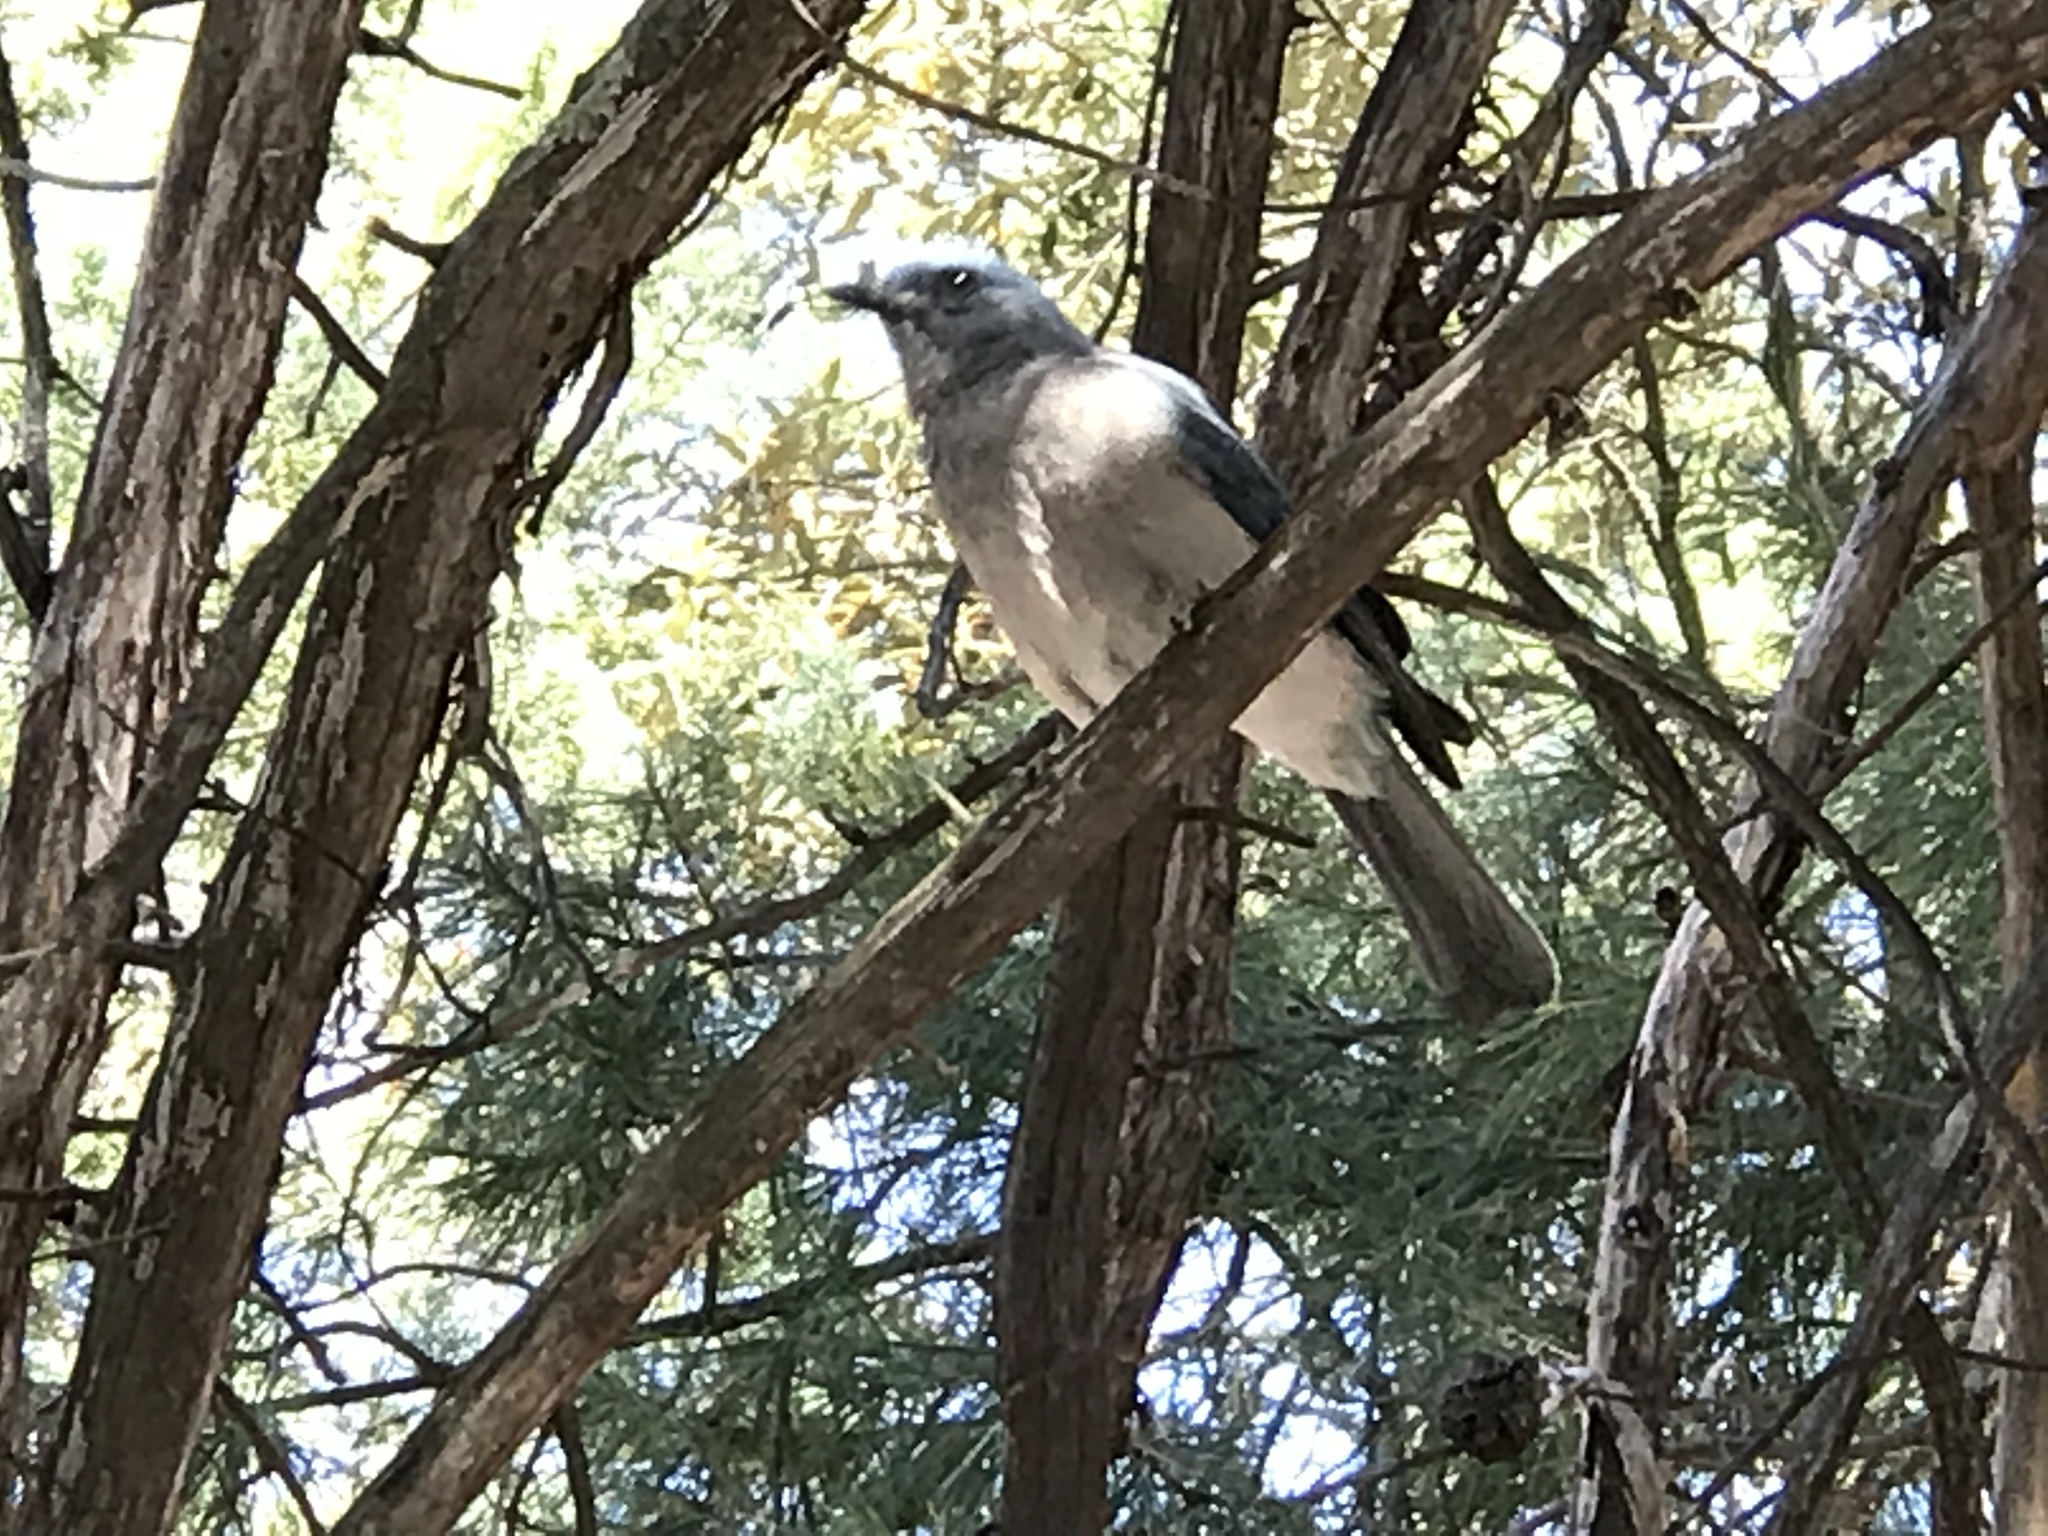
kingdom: Animalia
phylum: Chordata
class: Aves
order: Passeriformes
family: Corvidae
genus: Aphelocoma
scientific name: Aphelocoma wollweberi
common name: Mexican jay
